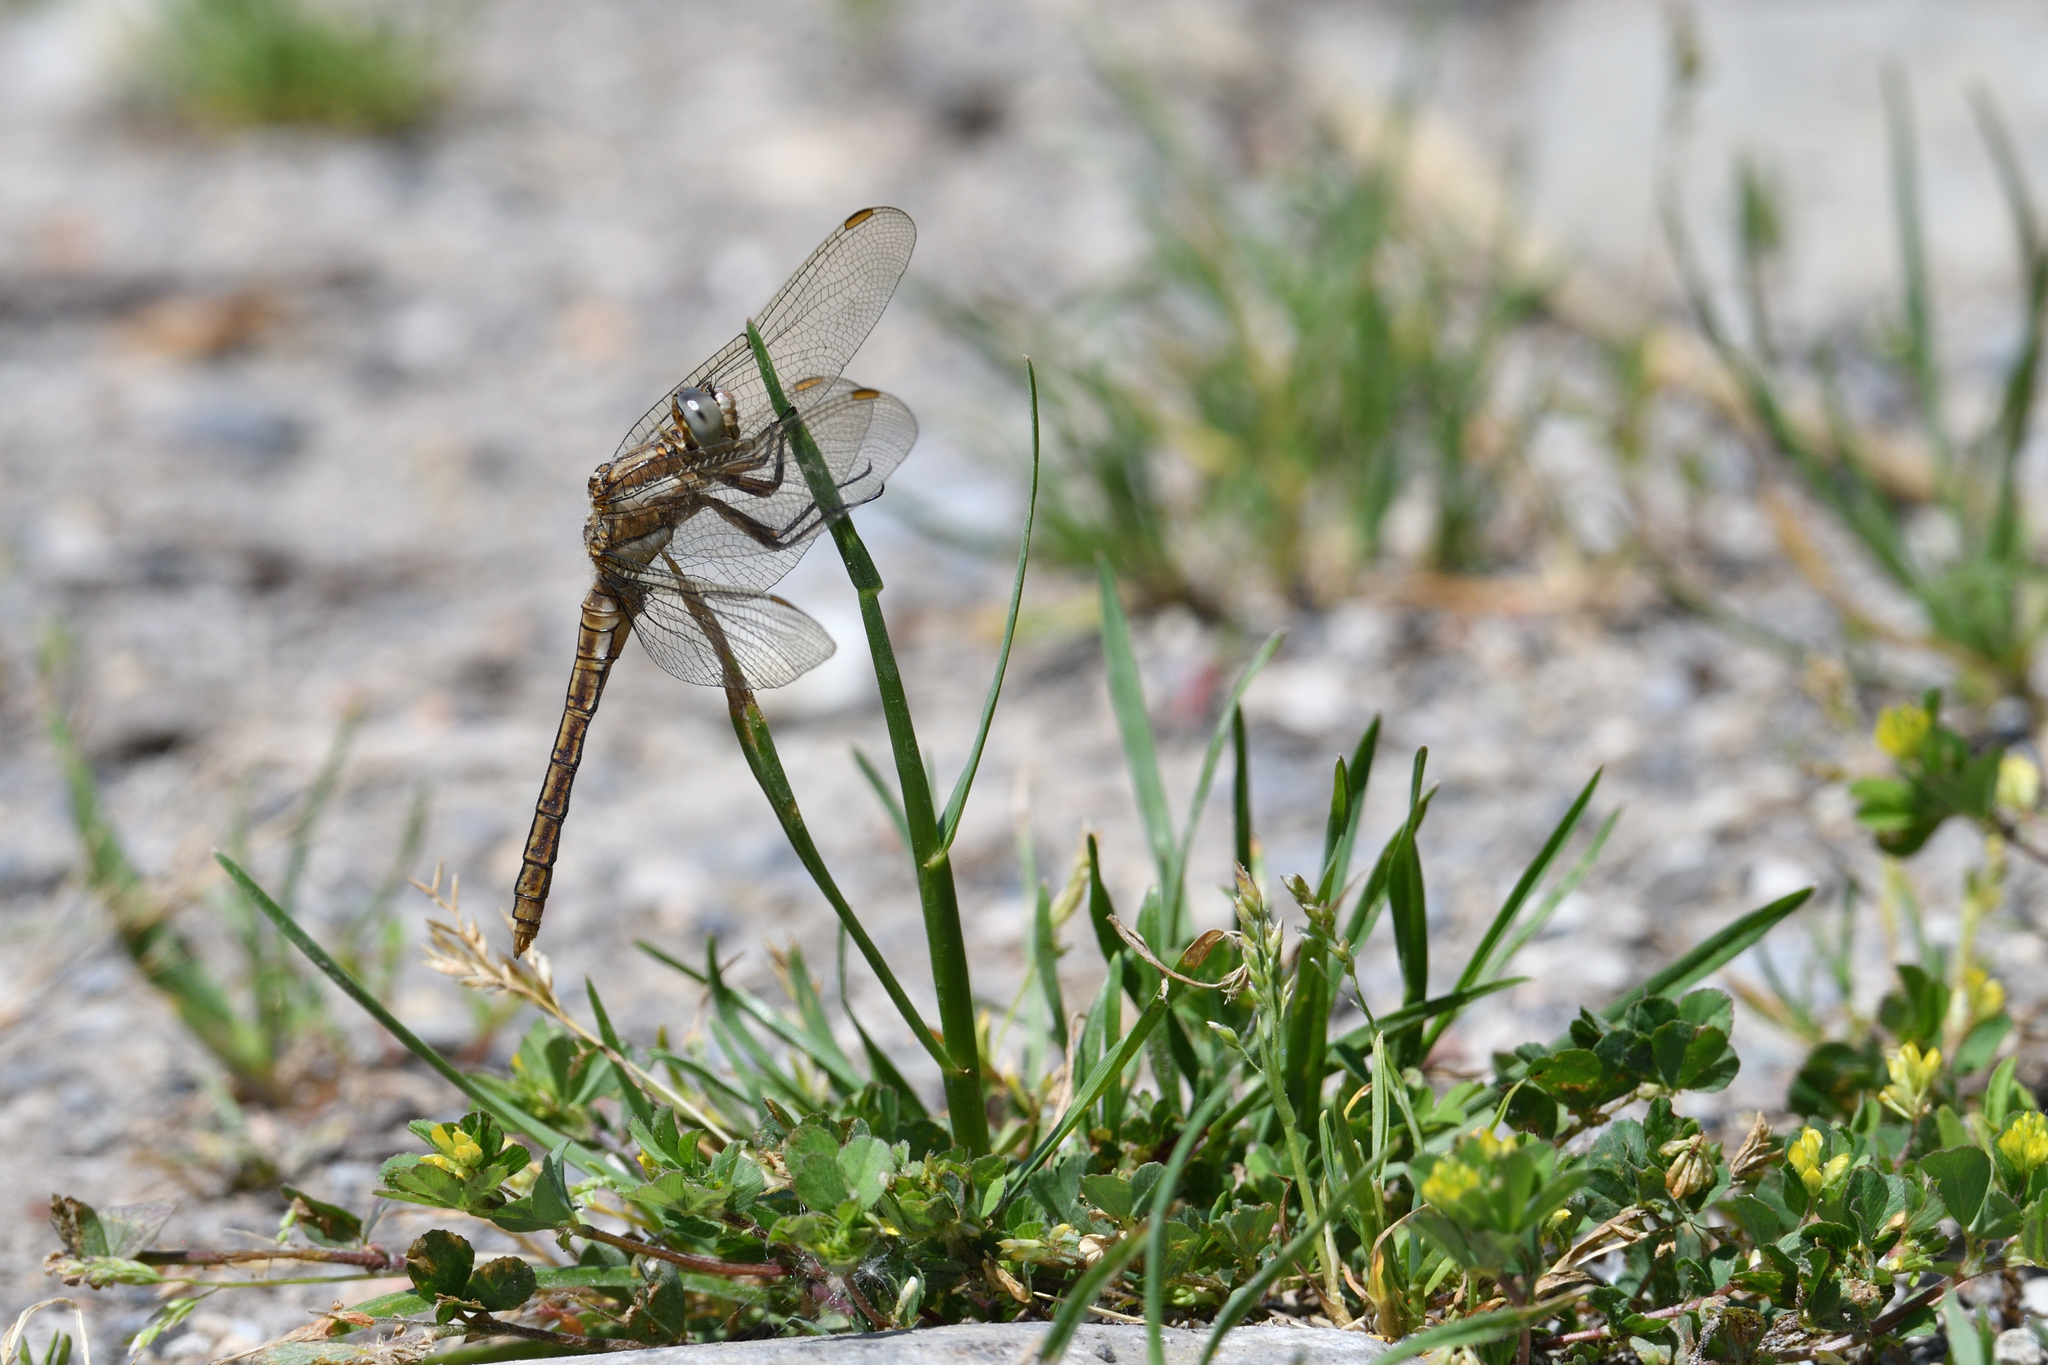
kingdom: Animalia
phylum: Arthropoda
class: Insecta
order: Odonata
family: Libellulidae
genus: Orthetrum
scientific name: Orthetrum brunneum
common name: Southern skimmer
